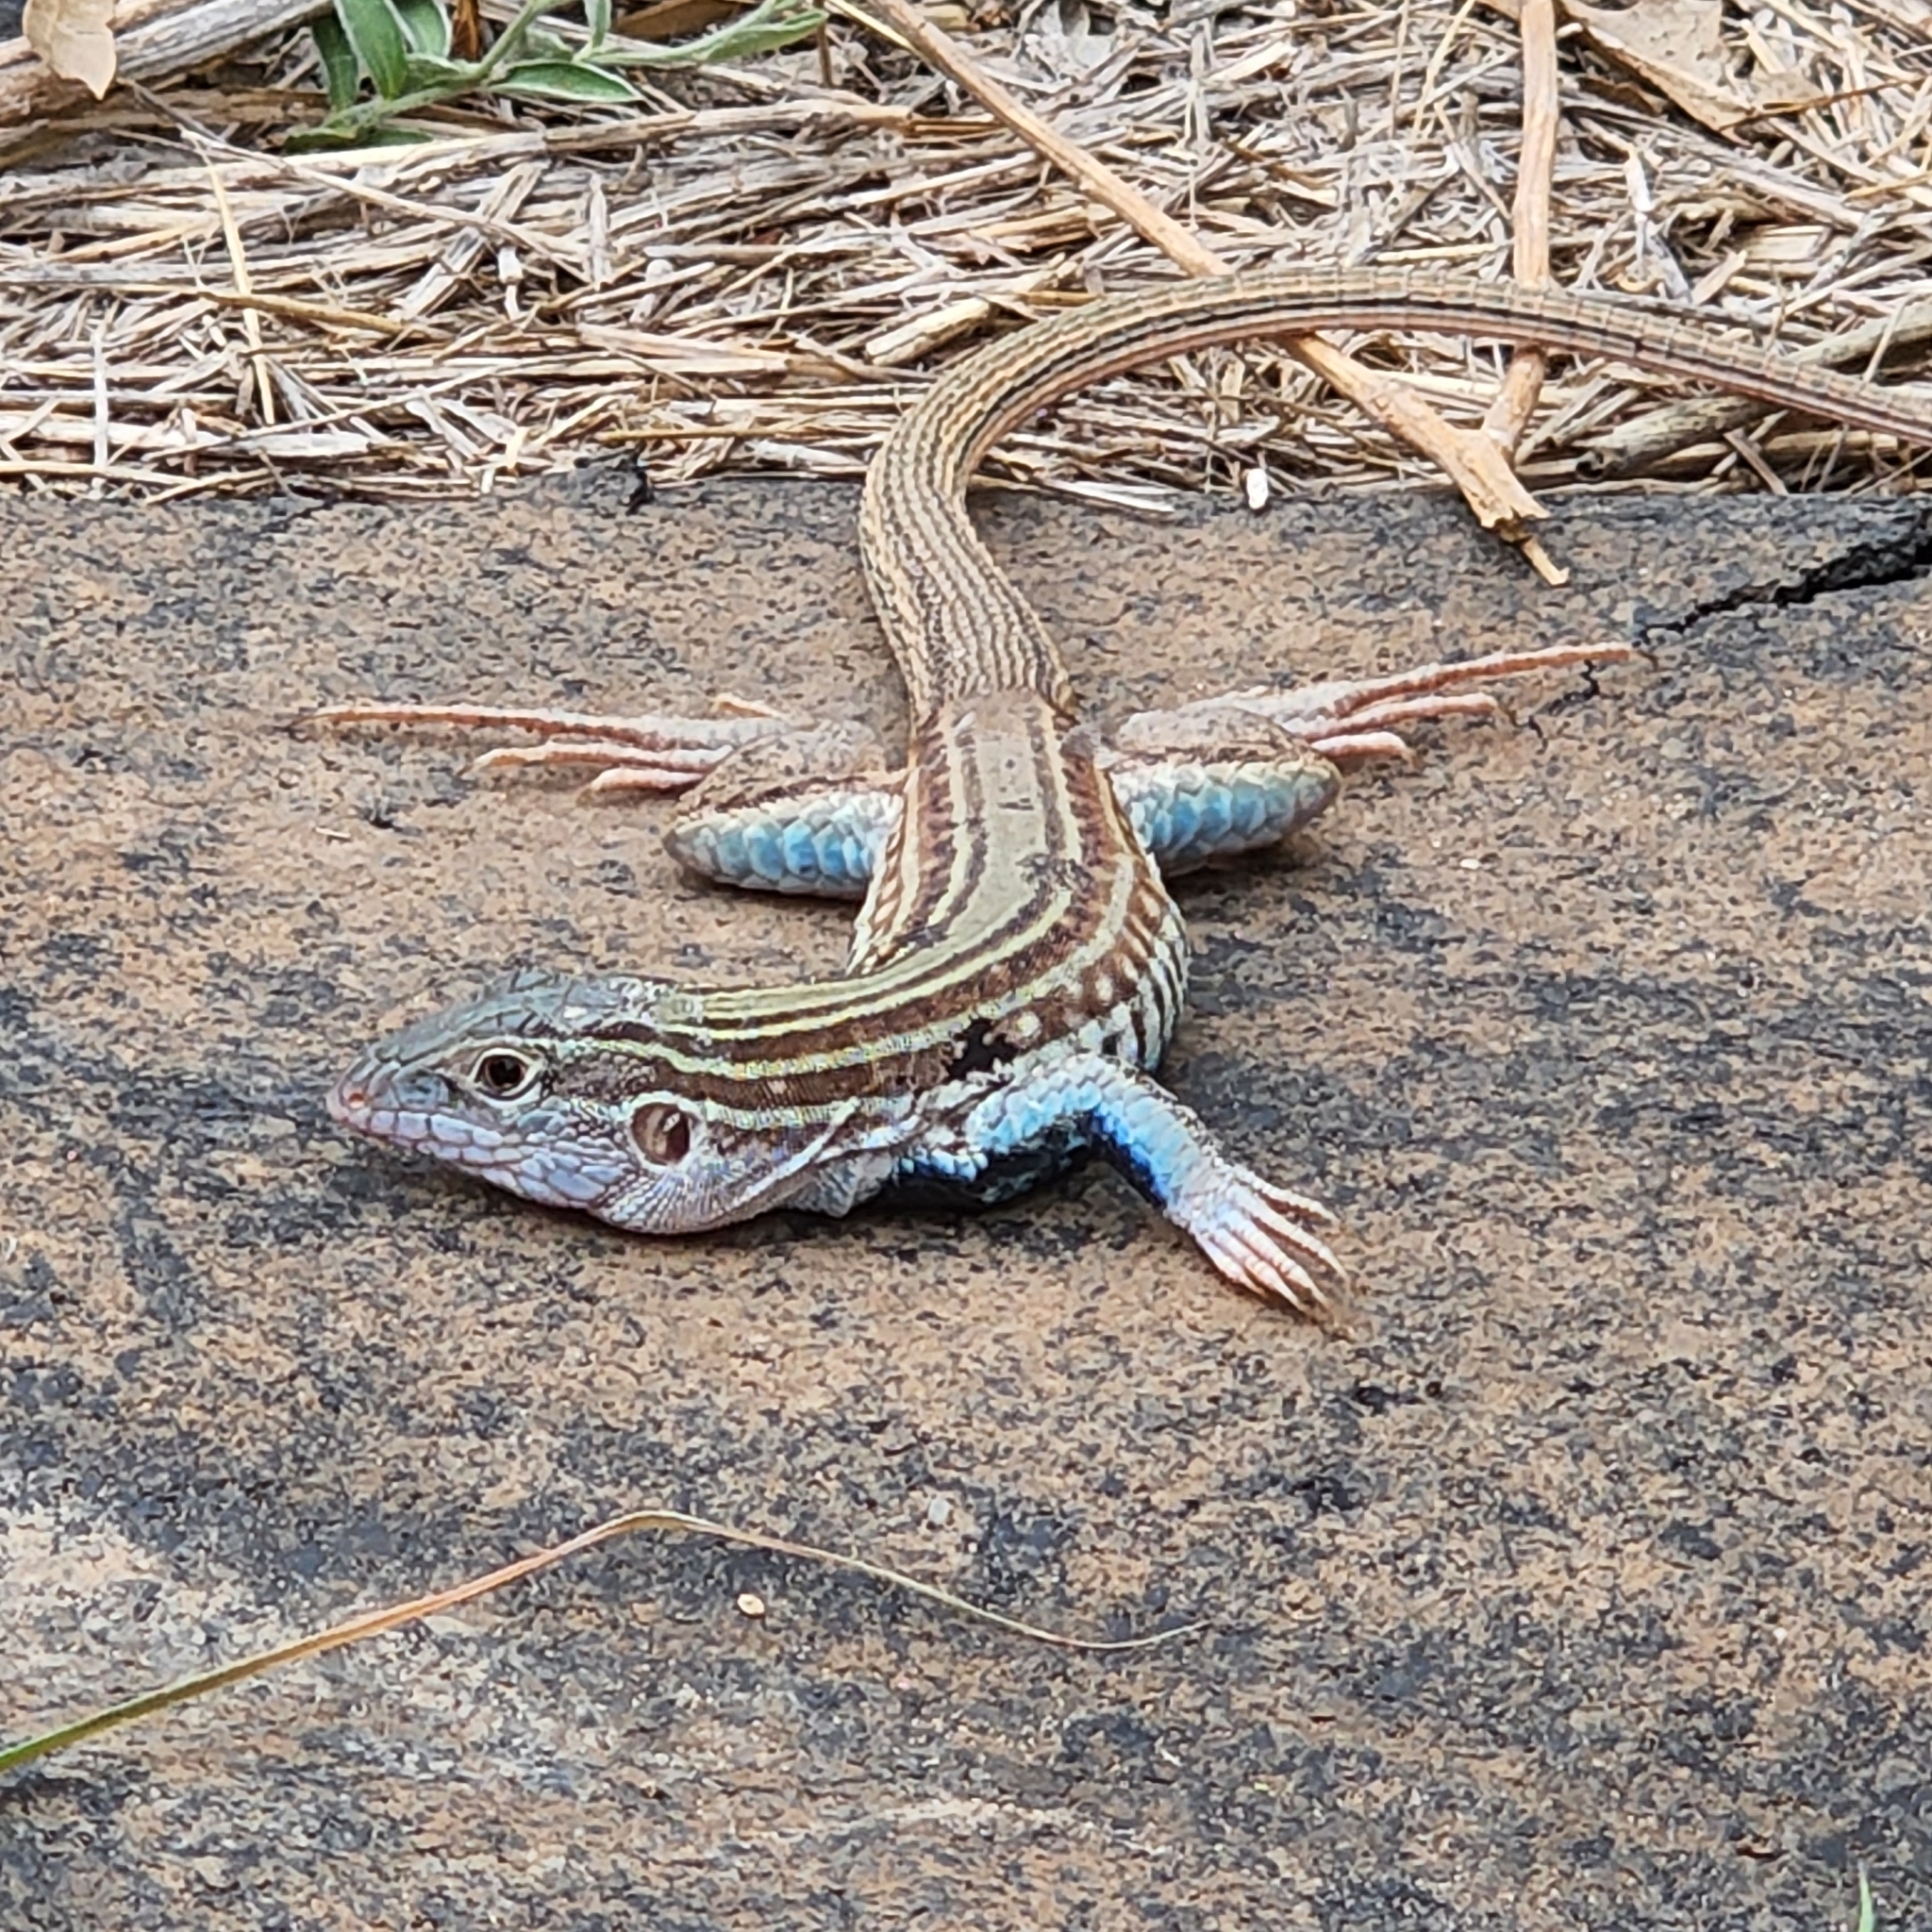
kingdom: Animalia
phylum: Chordata
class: Squamata
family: Teiidae
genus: Aspidoscelis
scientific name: Aspidoscelis gularis
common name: Eastern spotted whiptail
